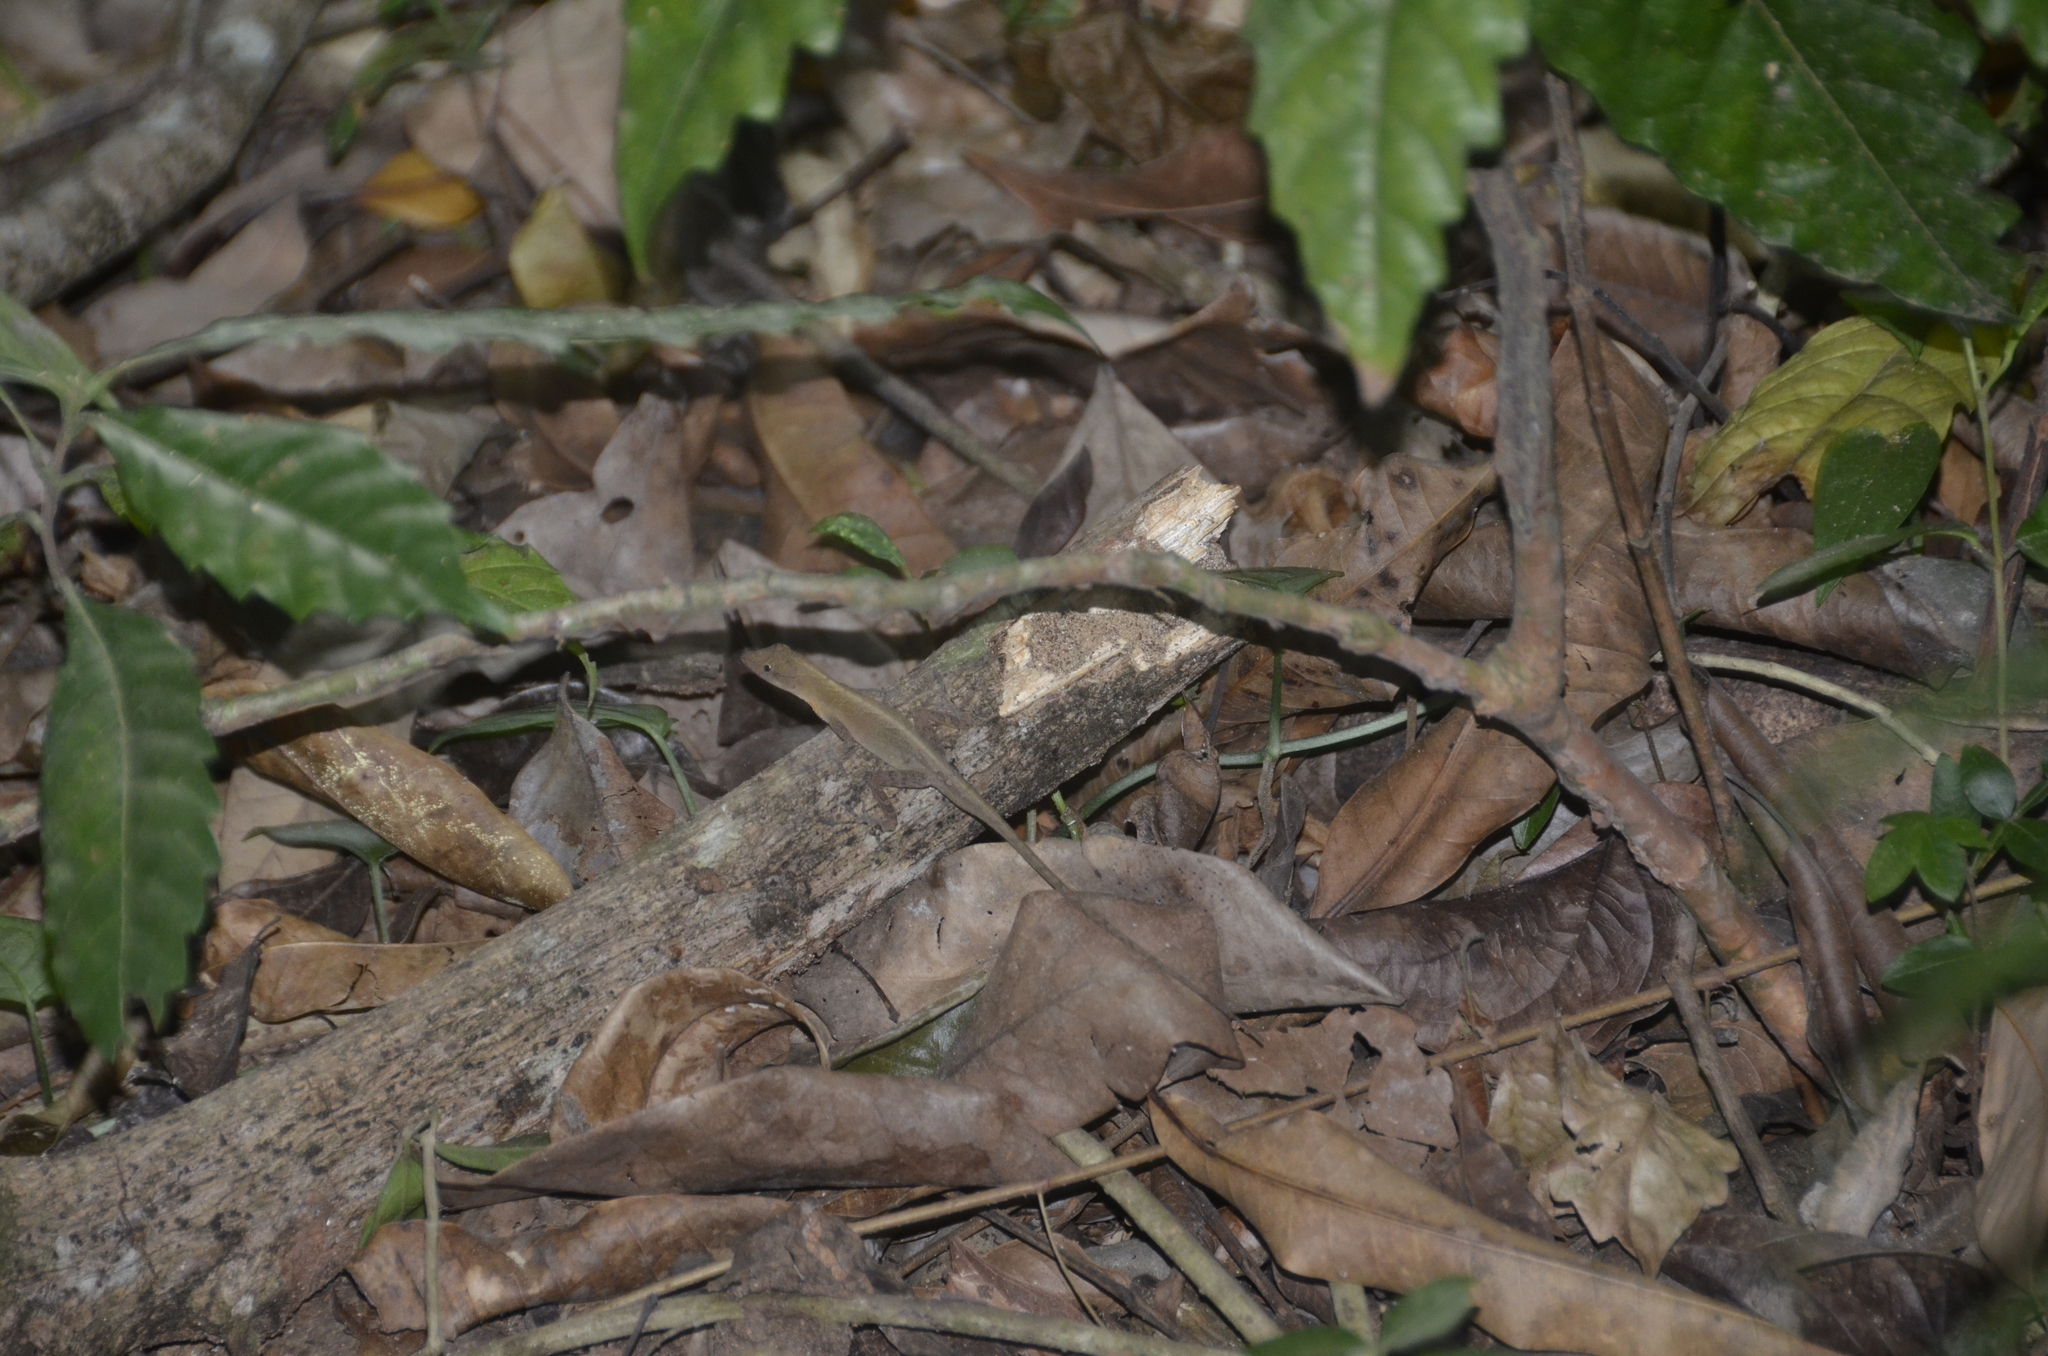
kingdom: Animalia
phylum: Chordata
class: Squamata
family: Dactyloidae
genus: Anolis
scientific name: Anolis cupreus
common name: Copper anole
